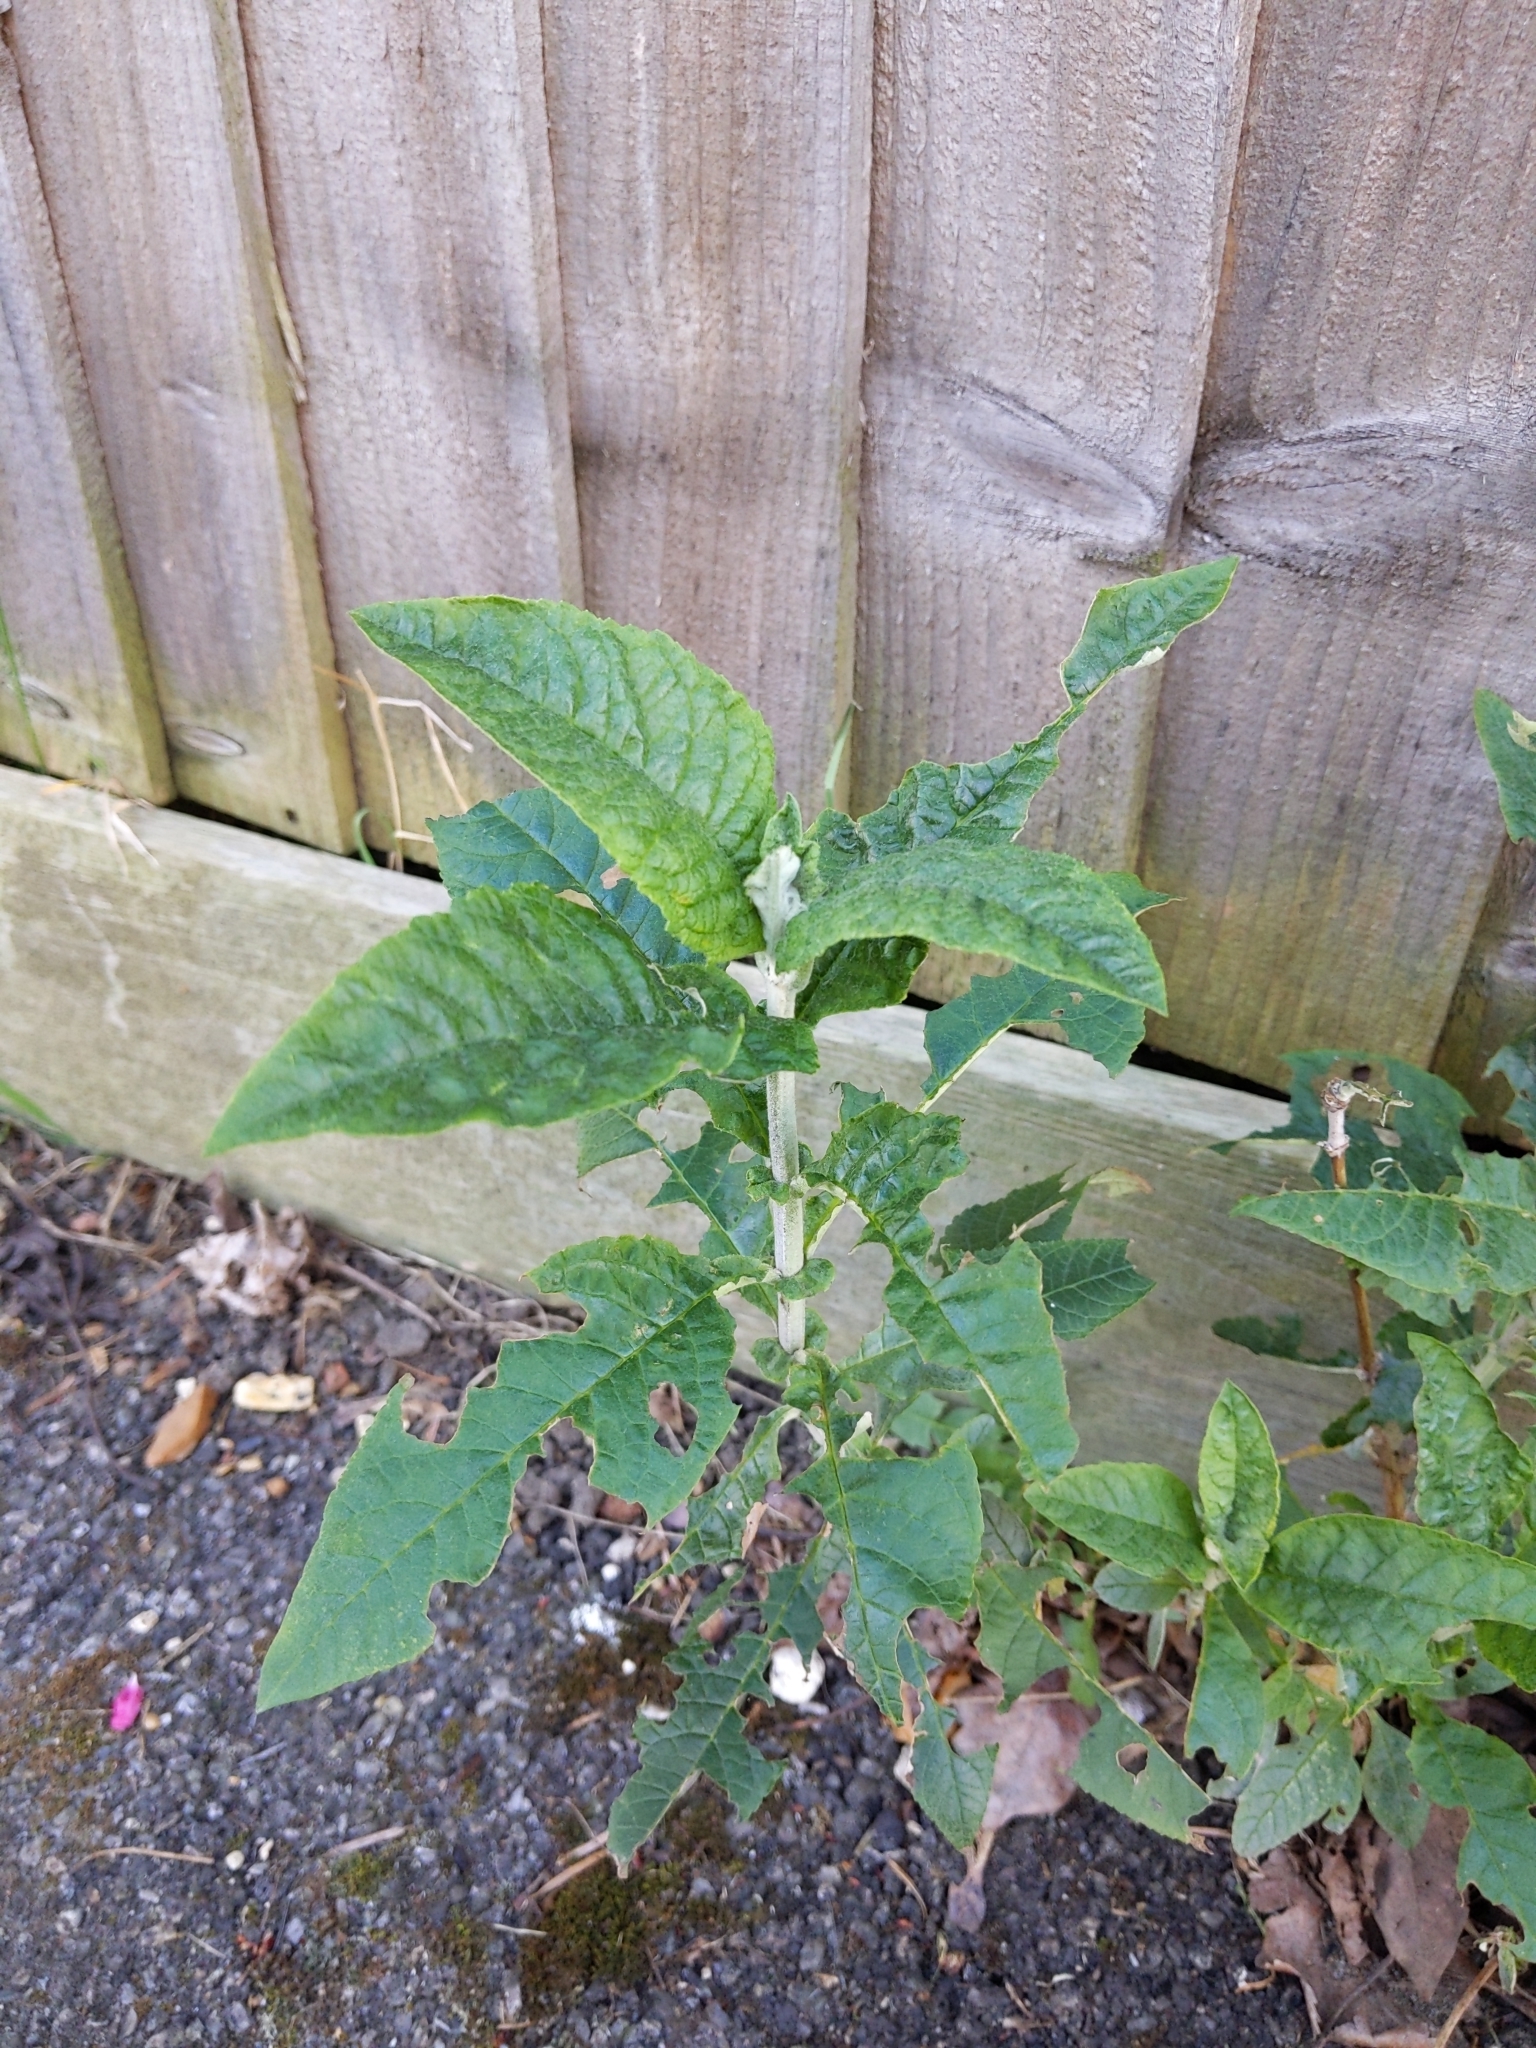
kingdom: Plantae
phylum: Tracheophyta
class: Magnoliopsida
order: Lamiales
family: Scrophulariaceae
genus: Buddleja
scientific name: Buddleja davidii
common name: Butterfly-bush
